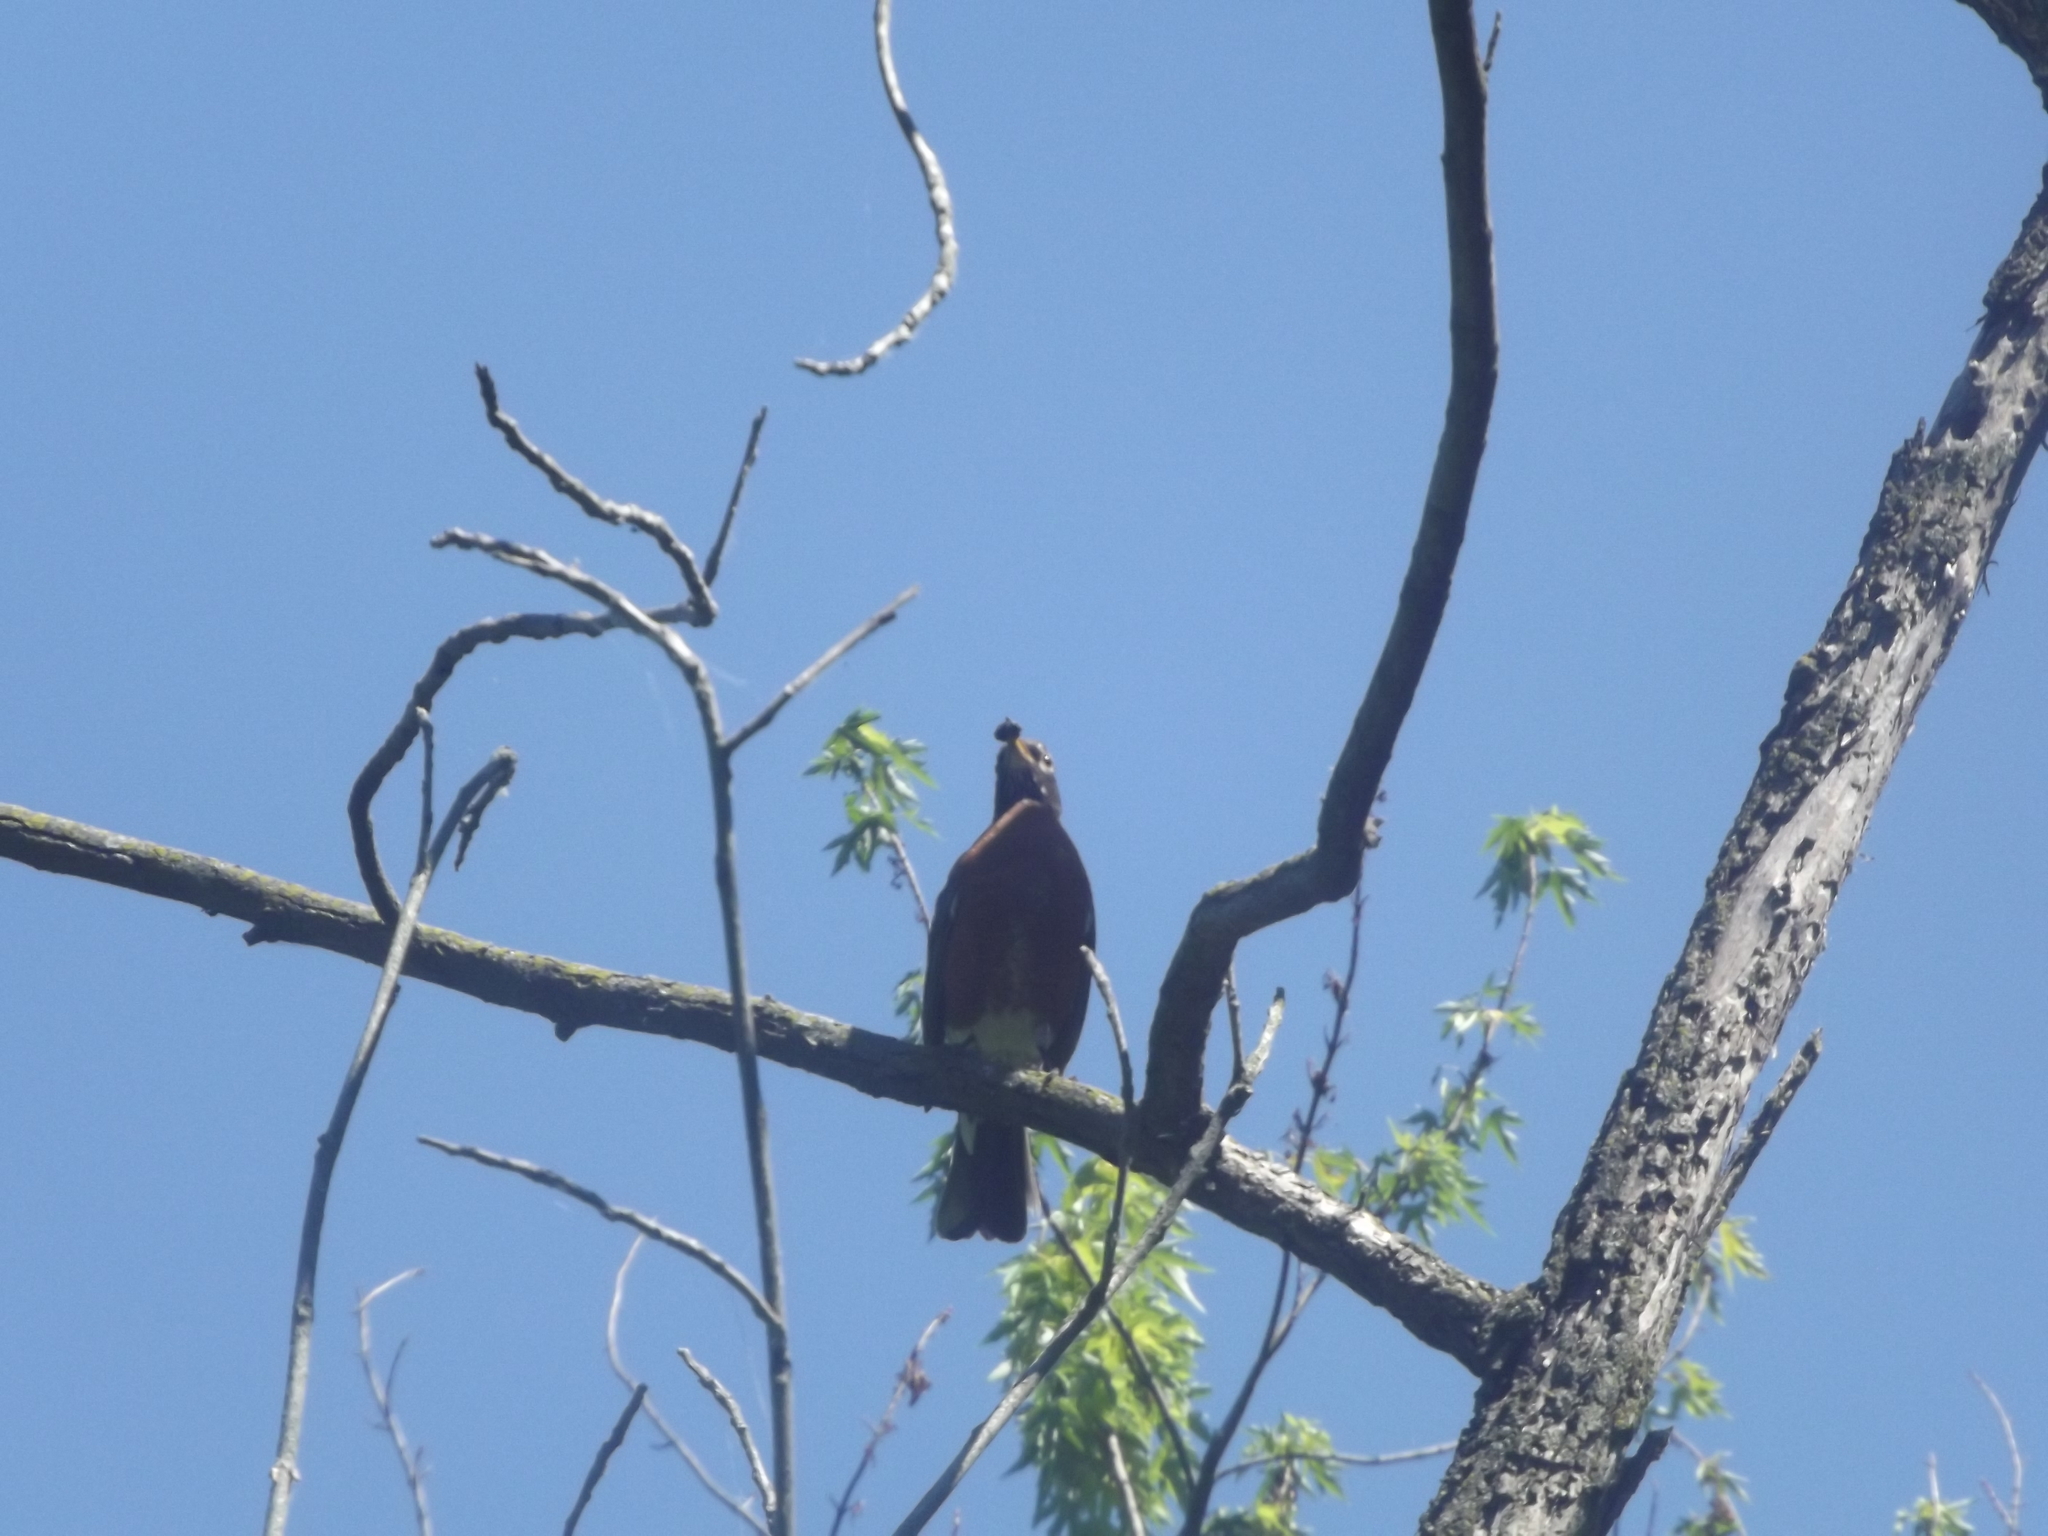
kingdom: Animalia
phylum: Chordata
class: Aves
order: Passeriformes
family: Turdidae
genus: Turdus
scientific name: Turdus migratorius
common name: American robin
